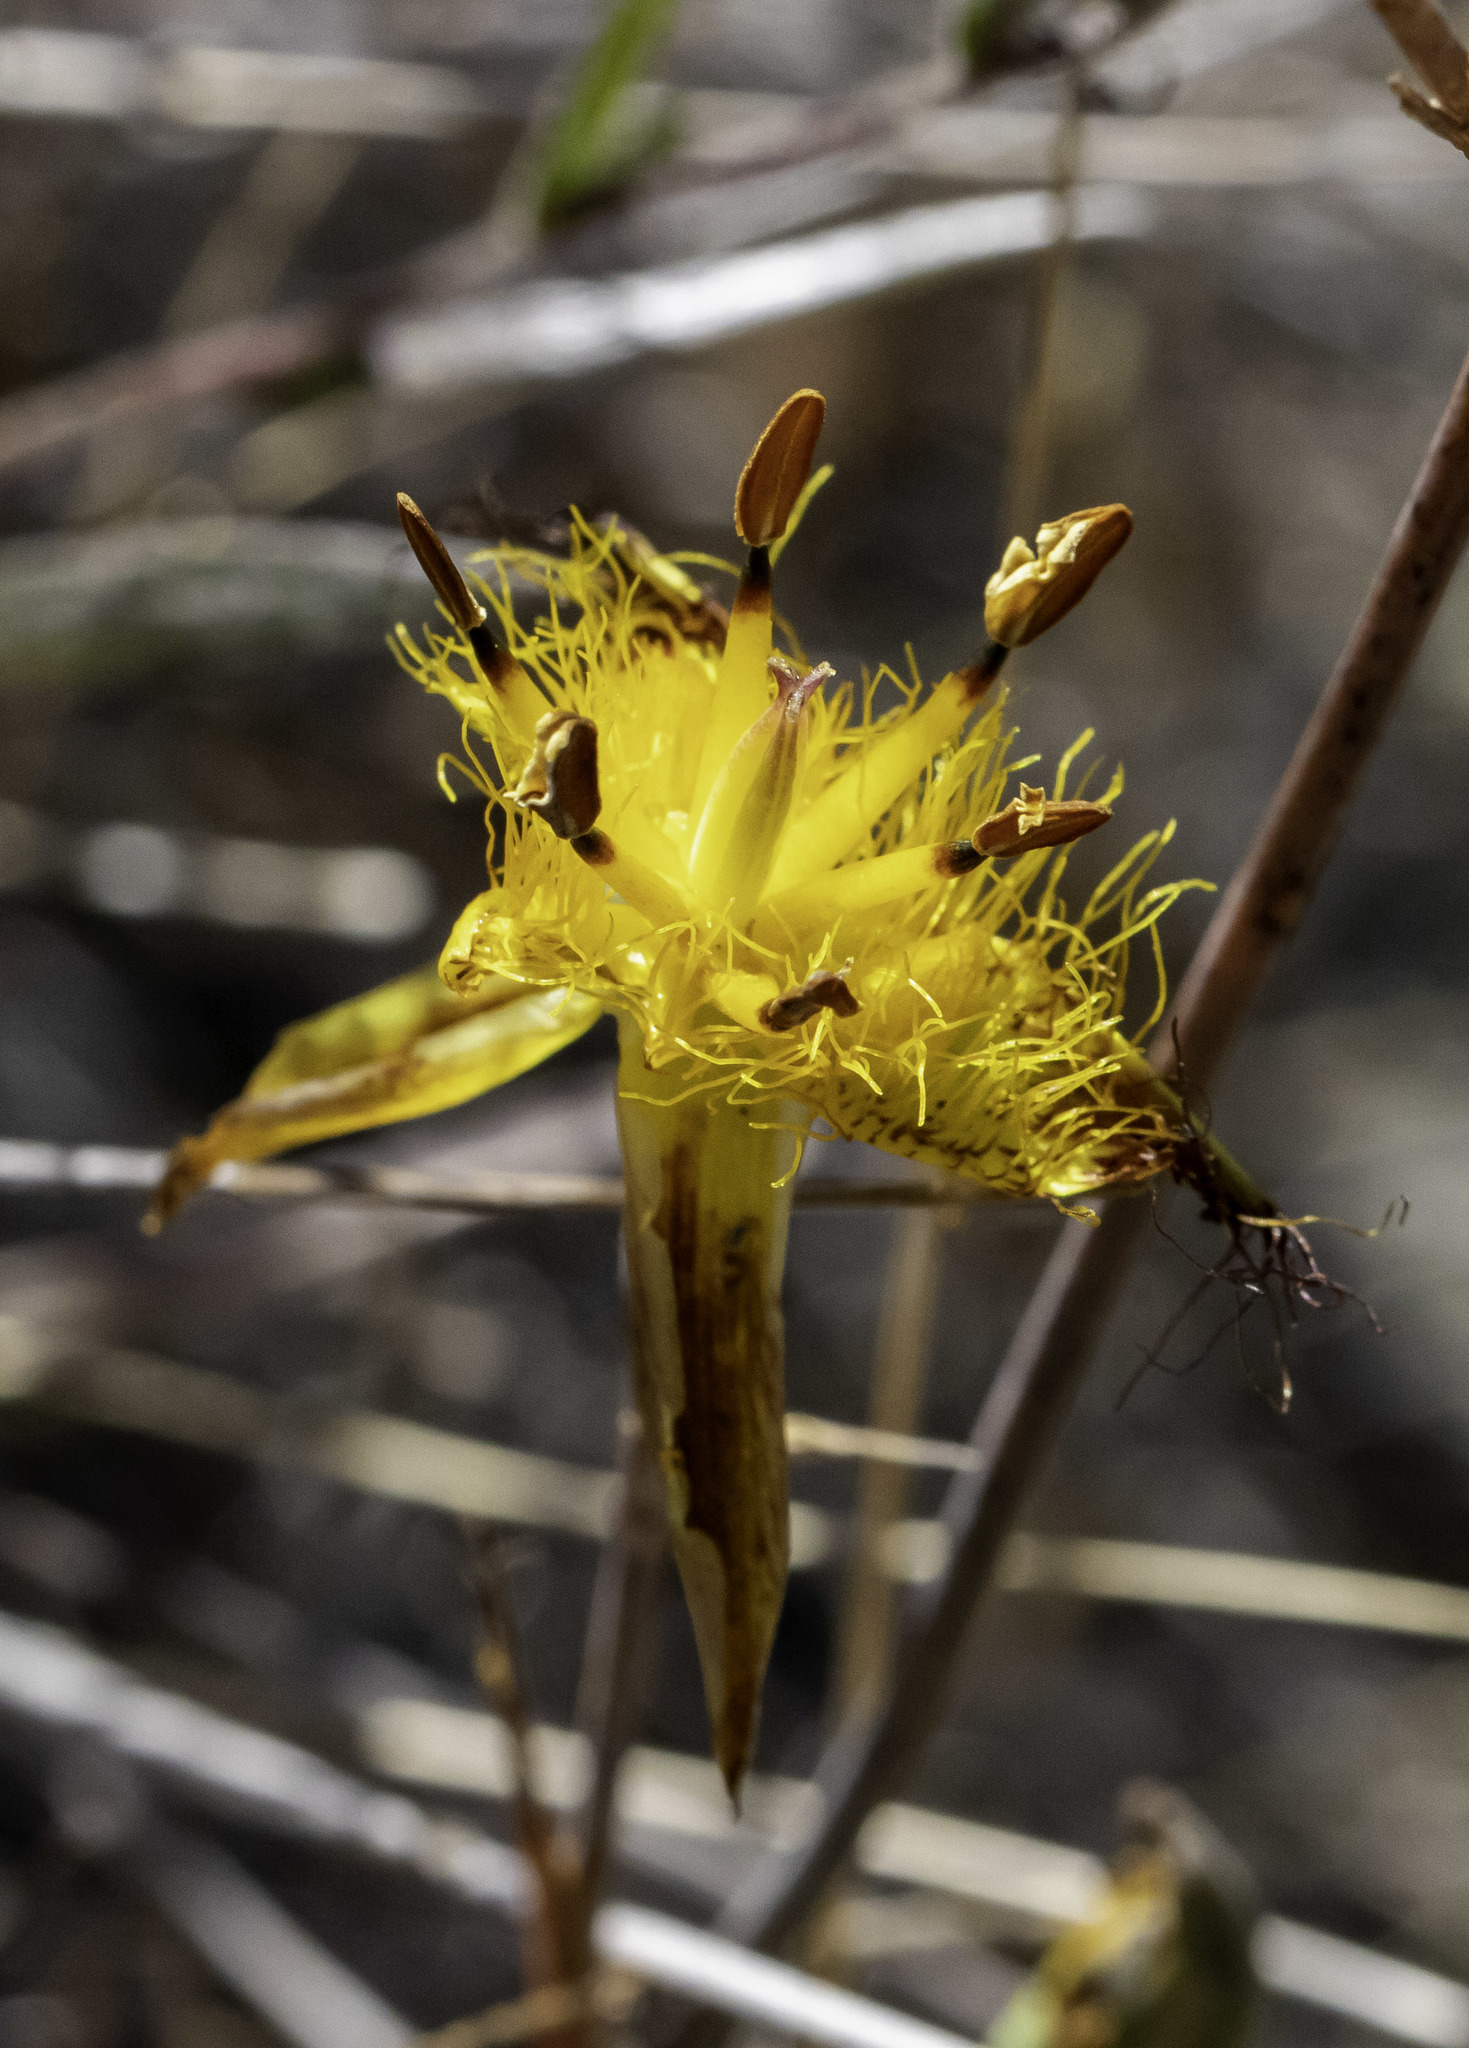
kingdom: Plantae
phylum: Tracheophyta
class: Liliopsida
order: Liliales
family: Liliaceae
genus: Calochortus
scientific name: Calochortus obispoensis
